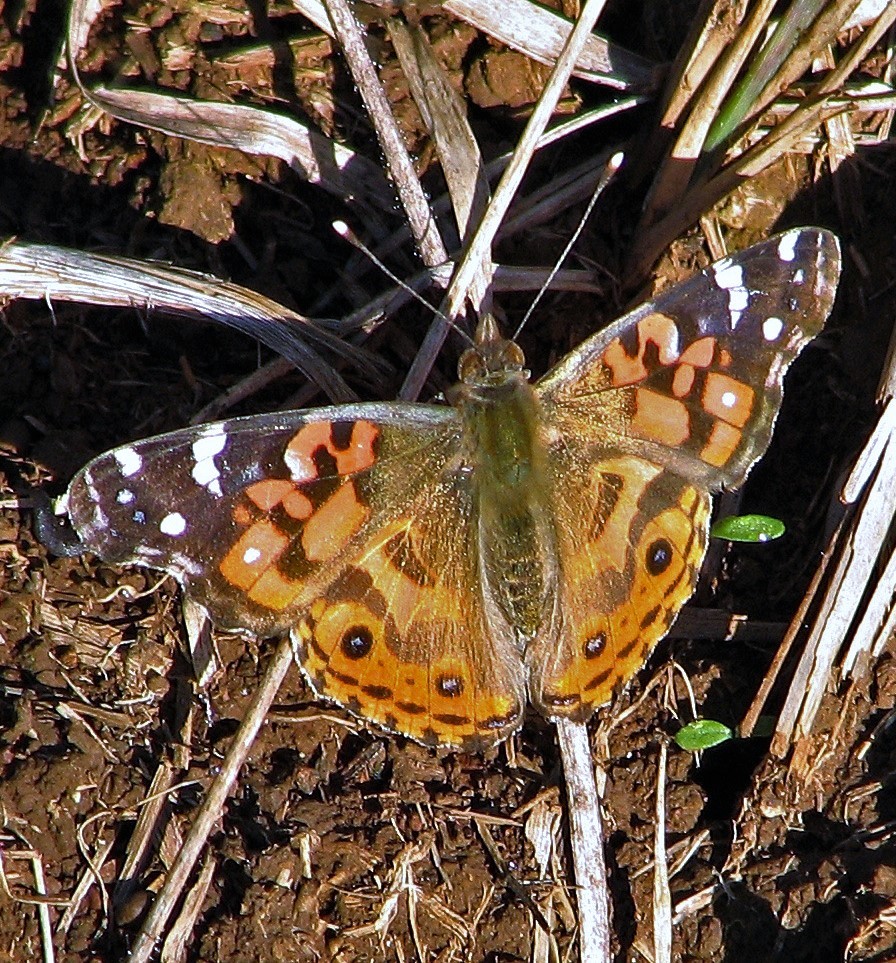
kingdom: Animalia
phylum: Arthropoda
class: Insecta
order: Lepidoptera
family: Nymphalidae
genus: Vanessa
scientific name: Vanessa braziliensis
